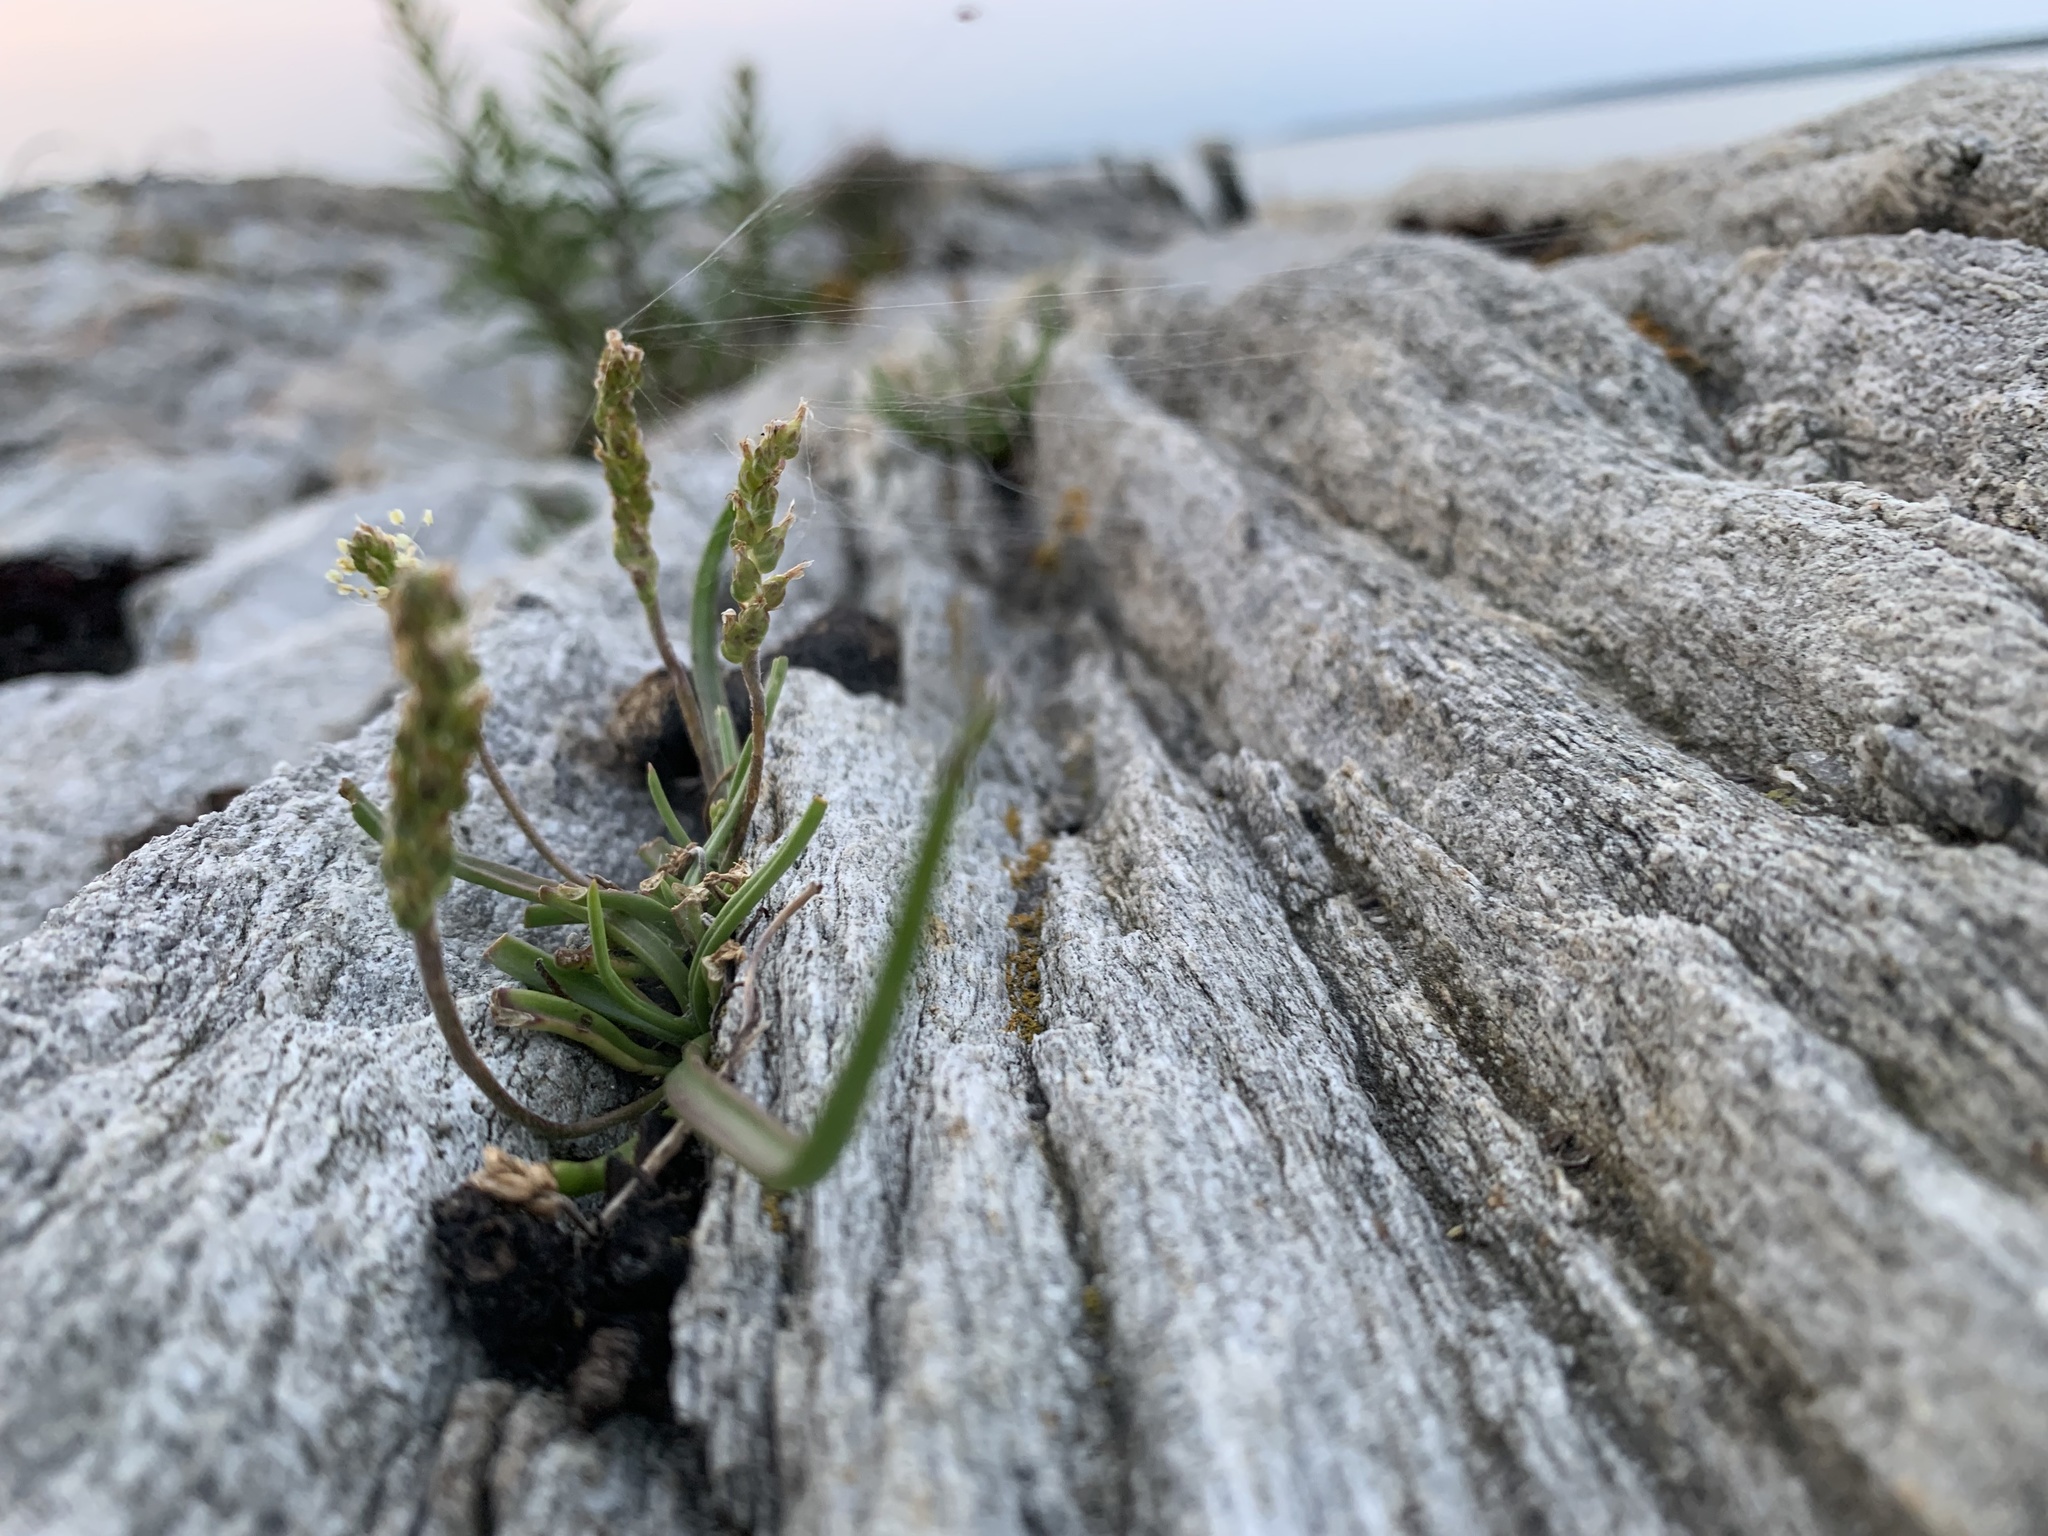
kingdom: Plantae
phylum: Tracheophyta
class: Magnoliopsida
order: Lamiales
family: Plantaginaceae
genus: Plantago
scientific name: Plantago maritima
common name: Sea plantain
